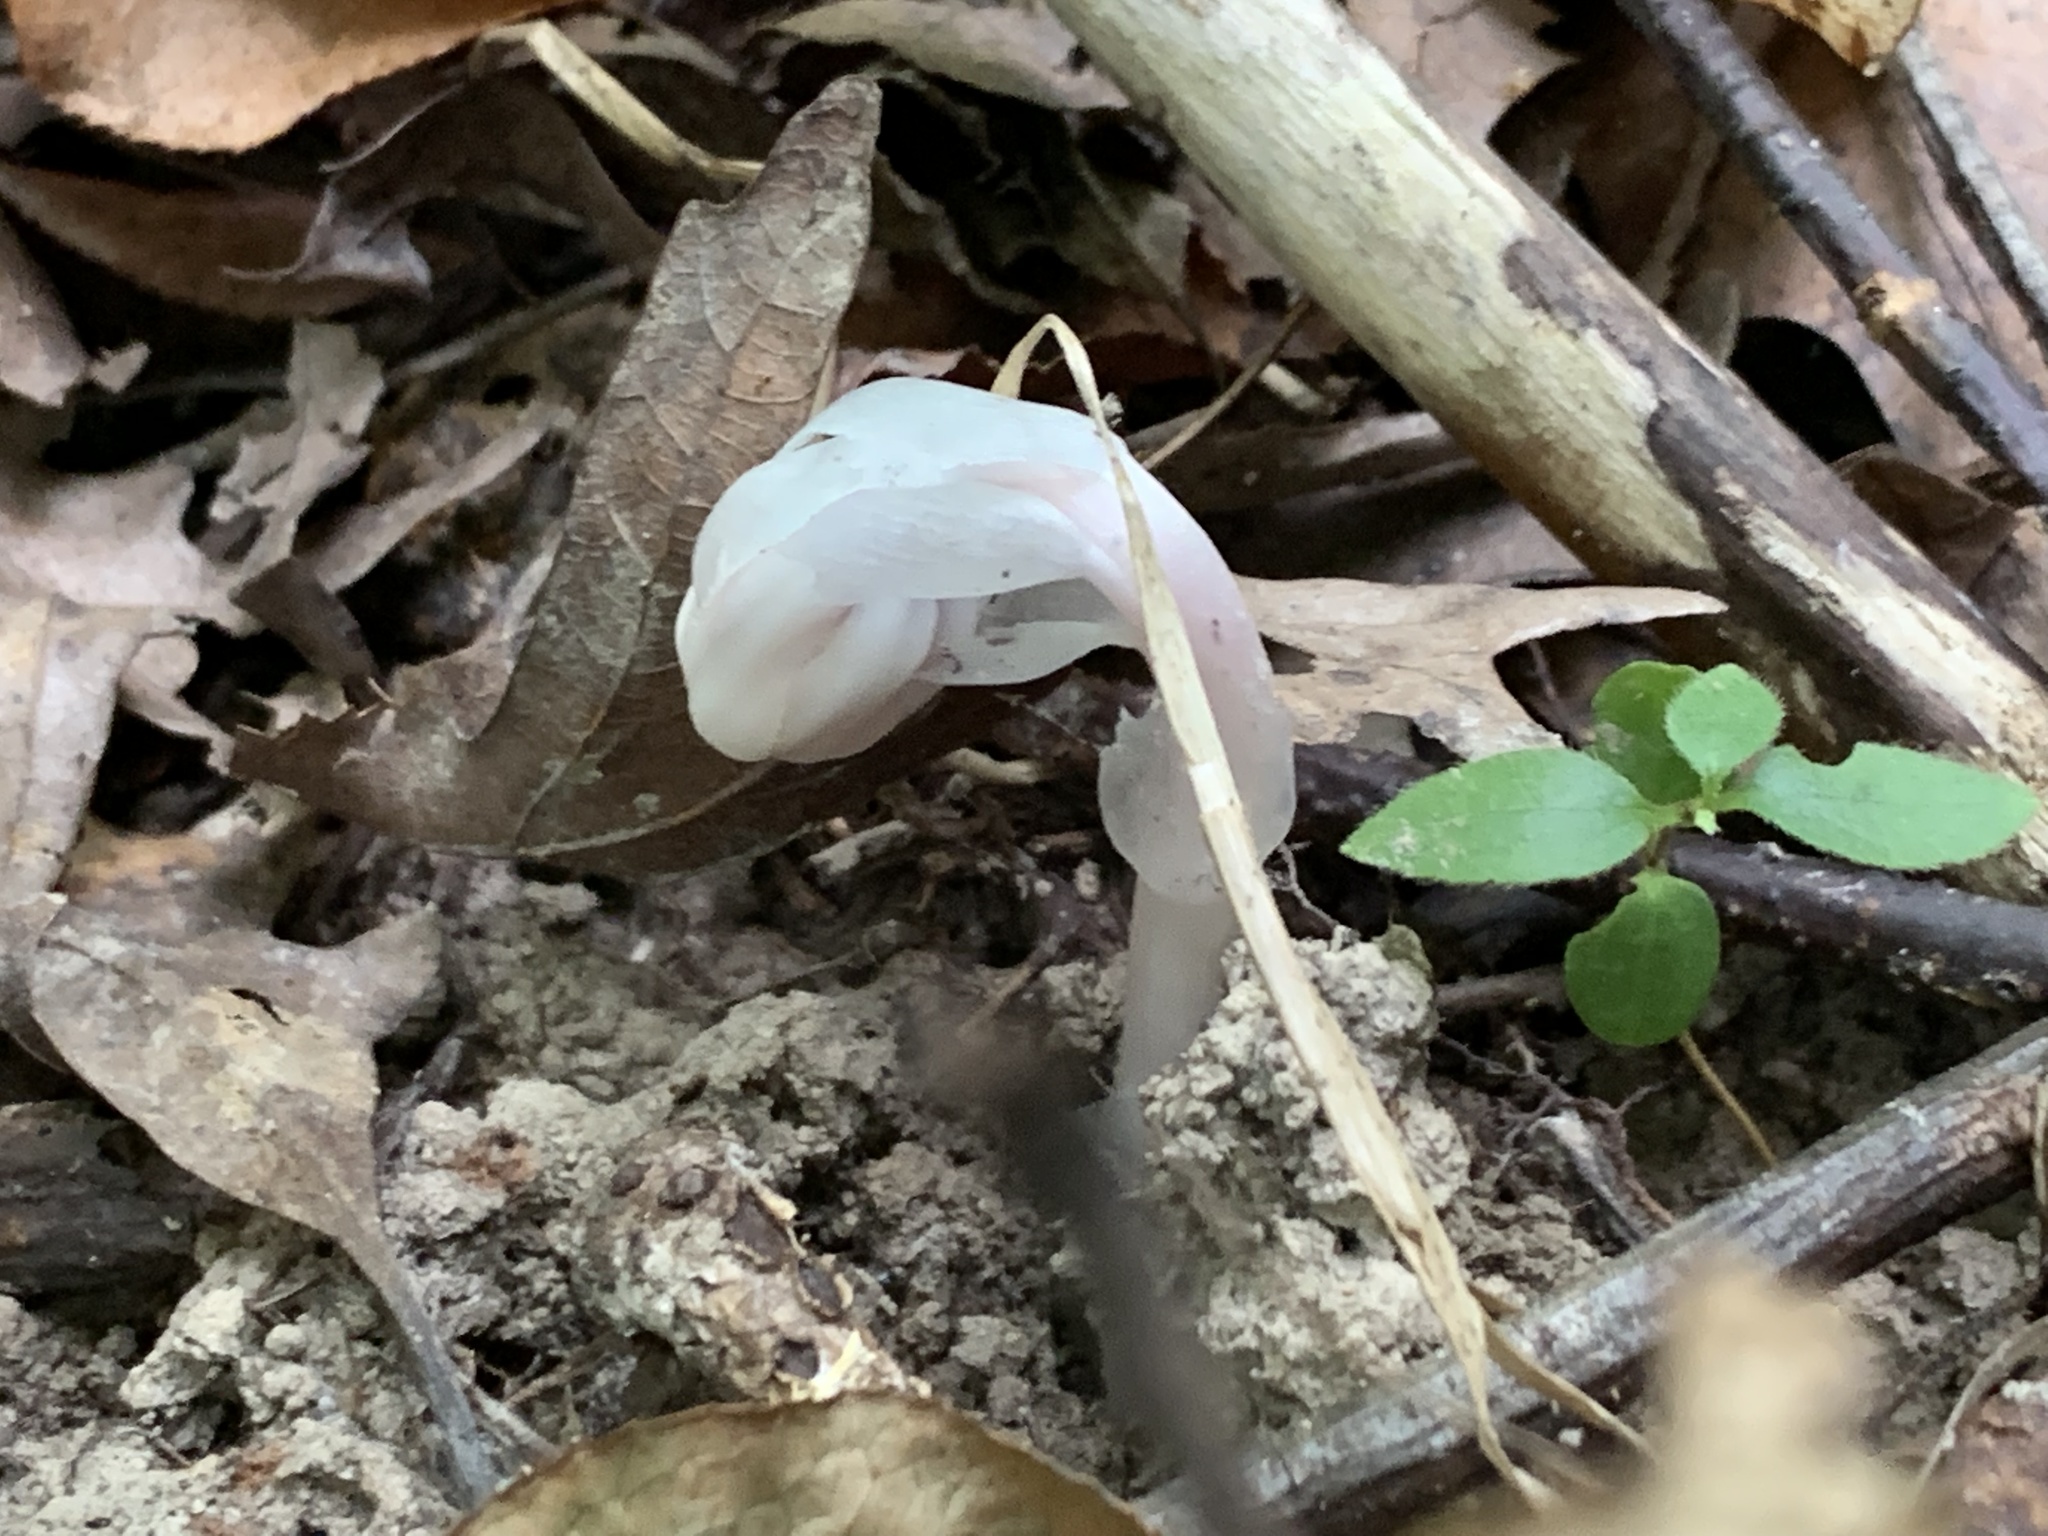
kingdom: Plantae
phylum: Tracheophyta
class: Magnoliopsida
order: Ericales
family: Ericaceae
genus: Monotropa
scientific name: Monotropa uniflora
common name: Convulsion root
